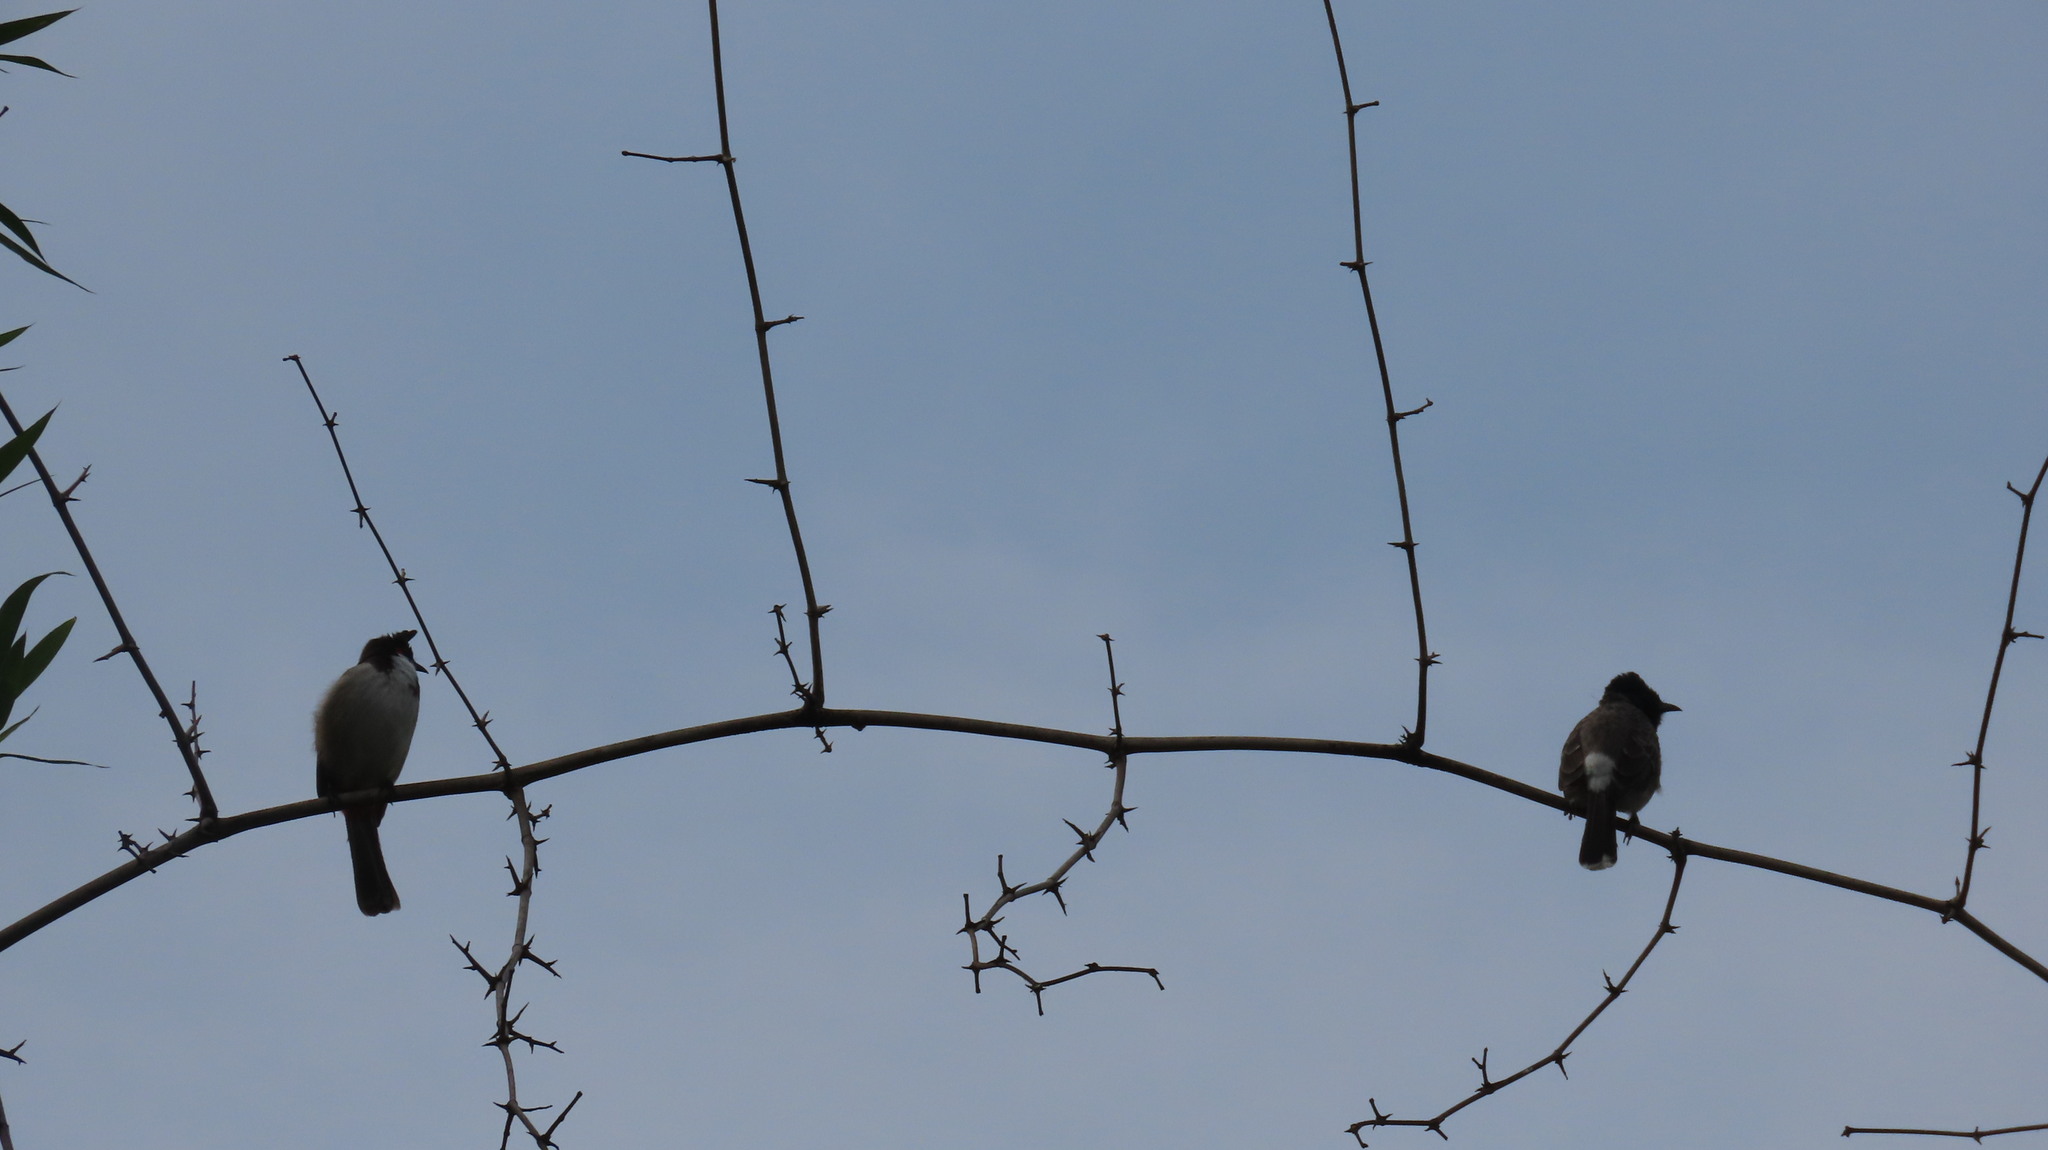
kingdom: Animalia
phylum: Chordata
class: Aves
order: Passeriformes
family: Pycnonotidae
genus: Pycnonotus
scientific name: Pycnonotus cafer
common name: Red-vented bulbul
